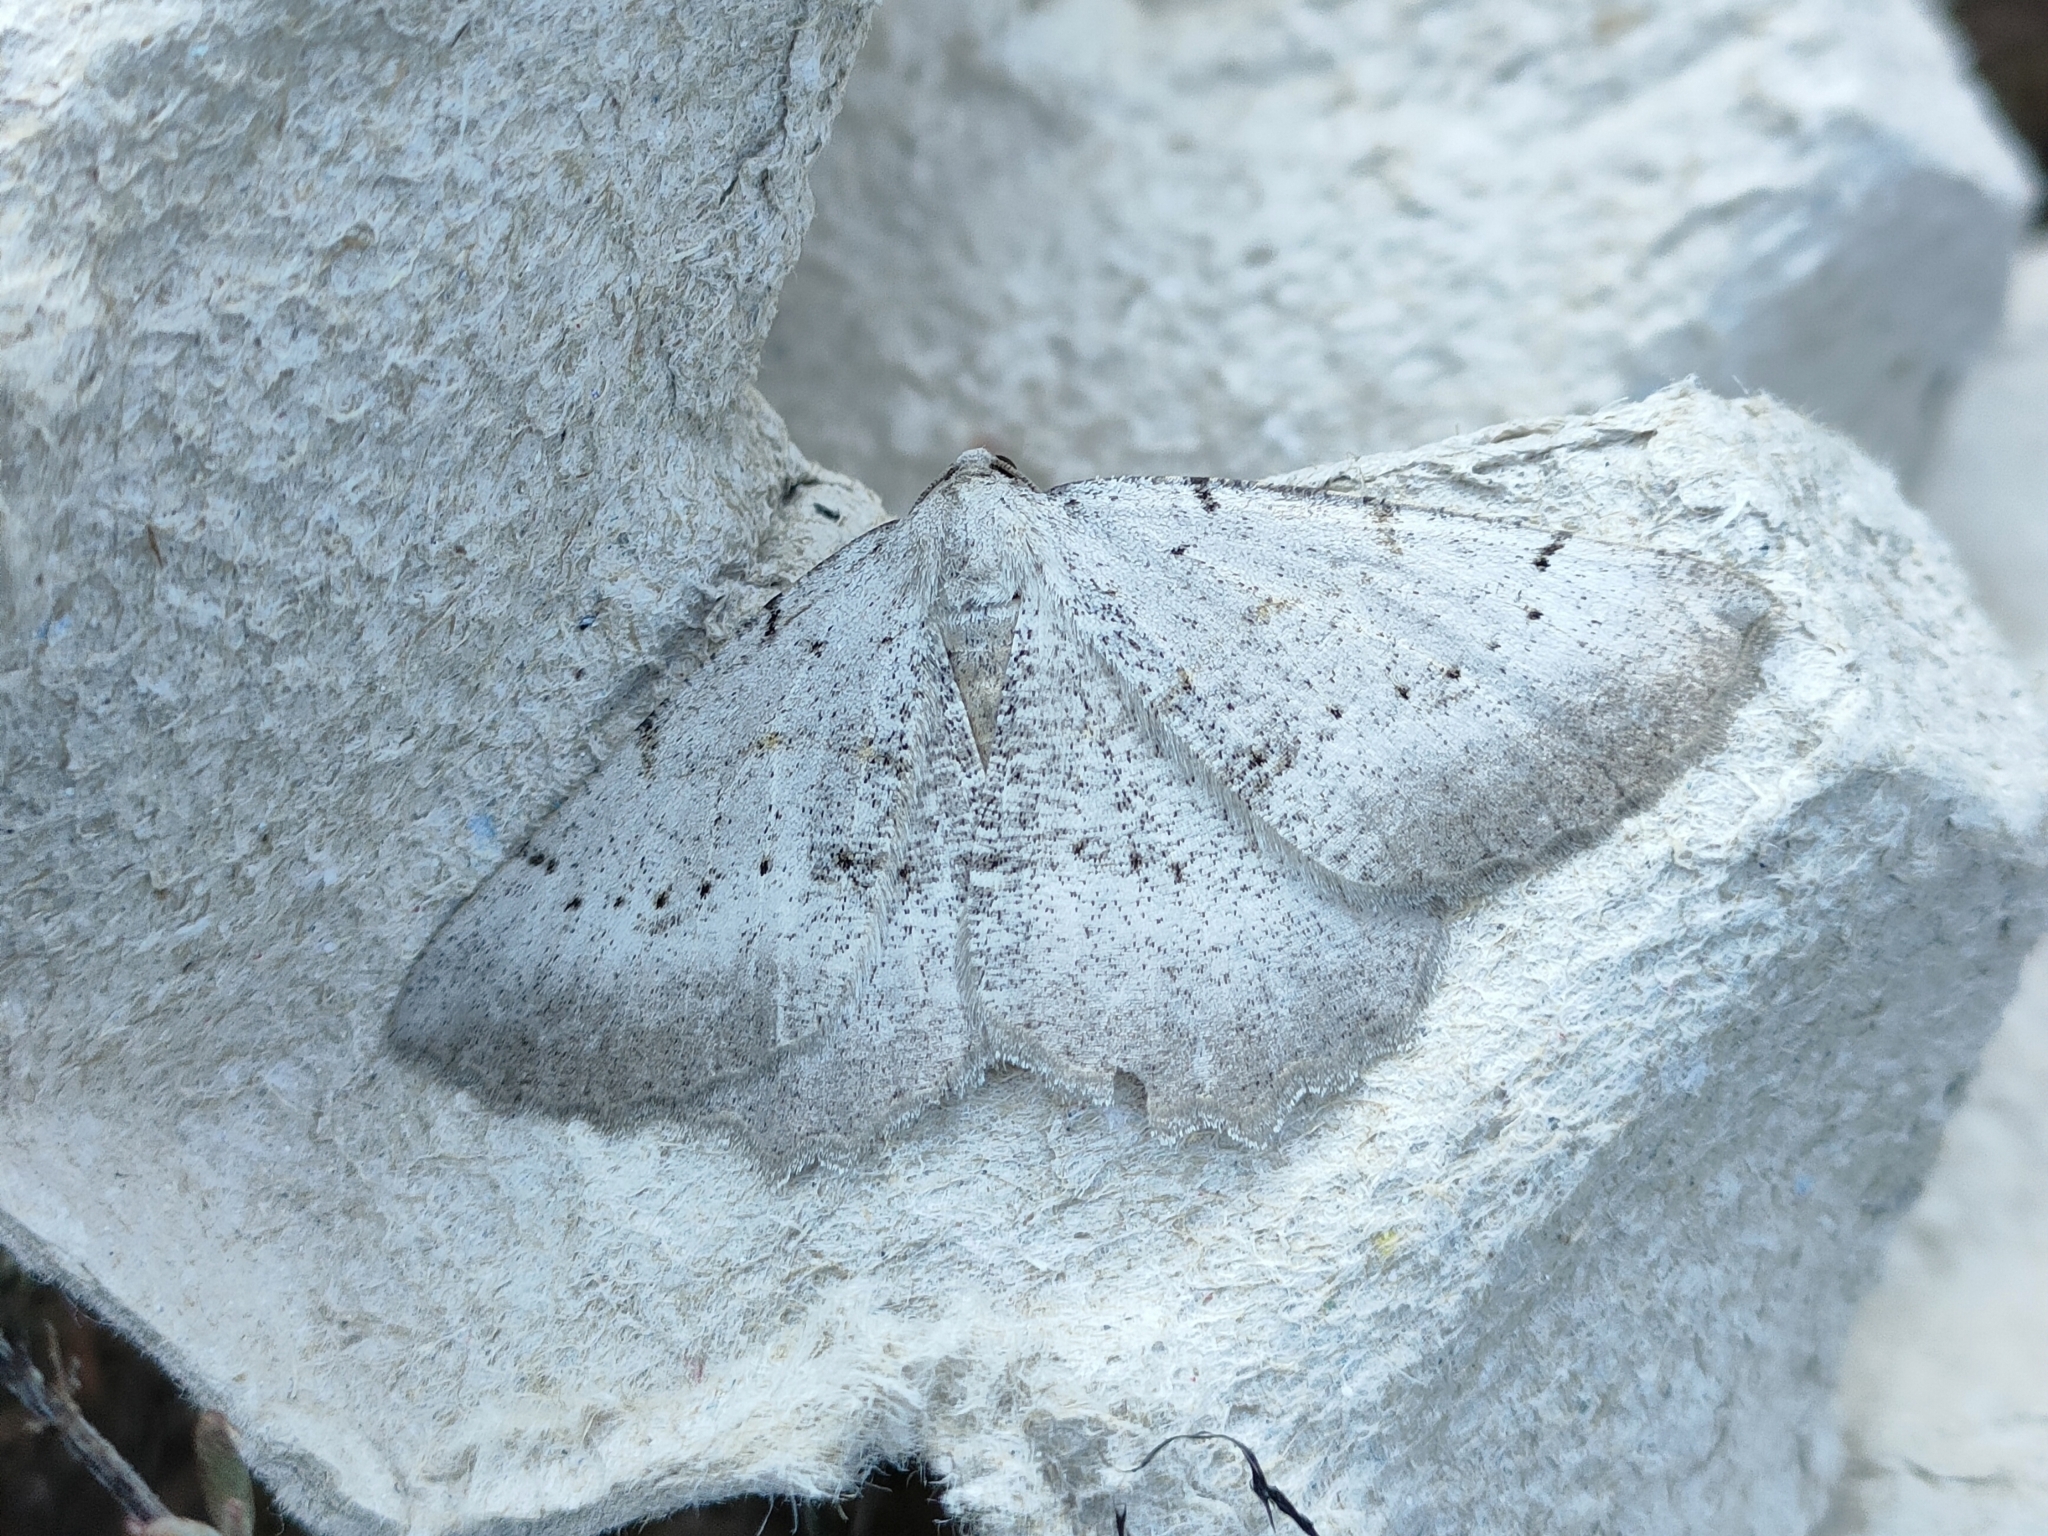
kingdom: Animalia
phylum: Arthropoda
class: Insecta
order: Lepidoptera
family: Geometridae
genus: Neognopharmia
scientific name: Neognopharmia stevenaria
